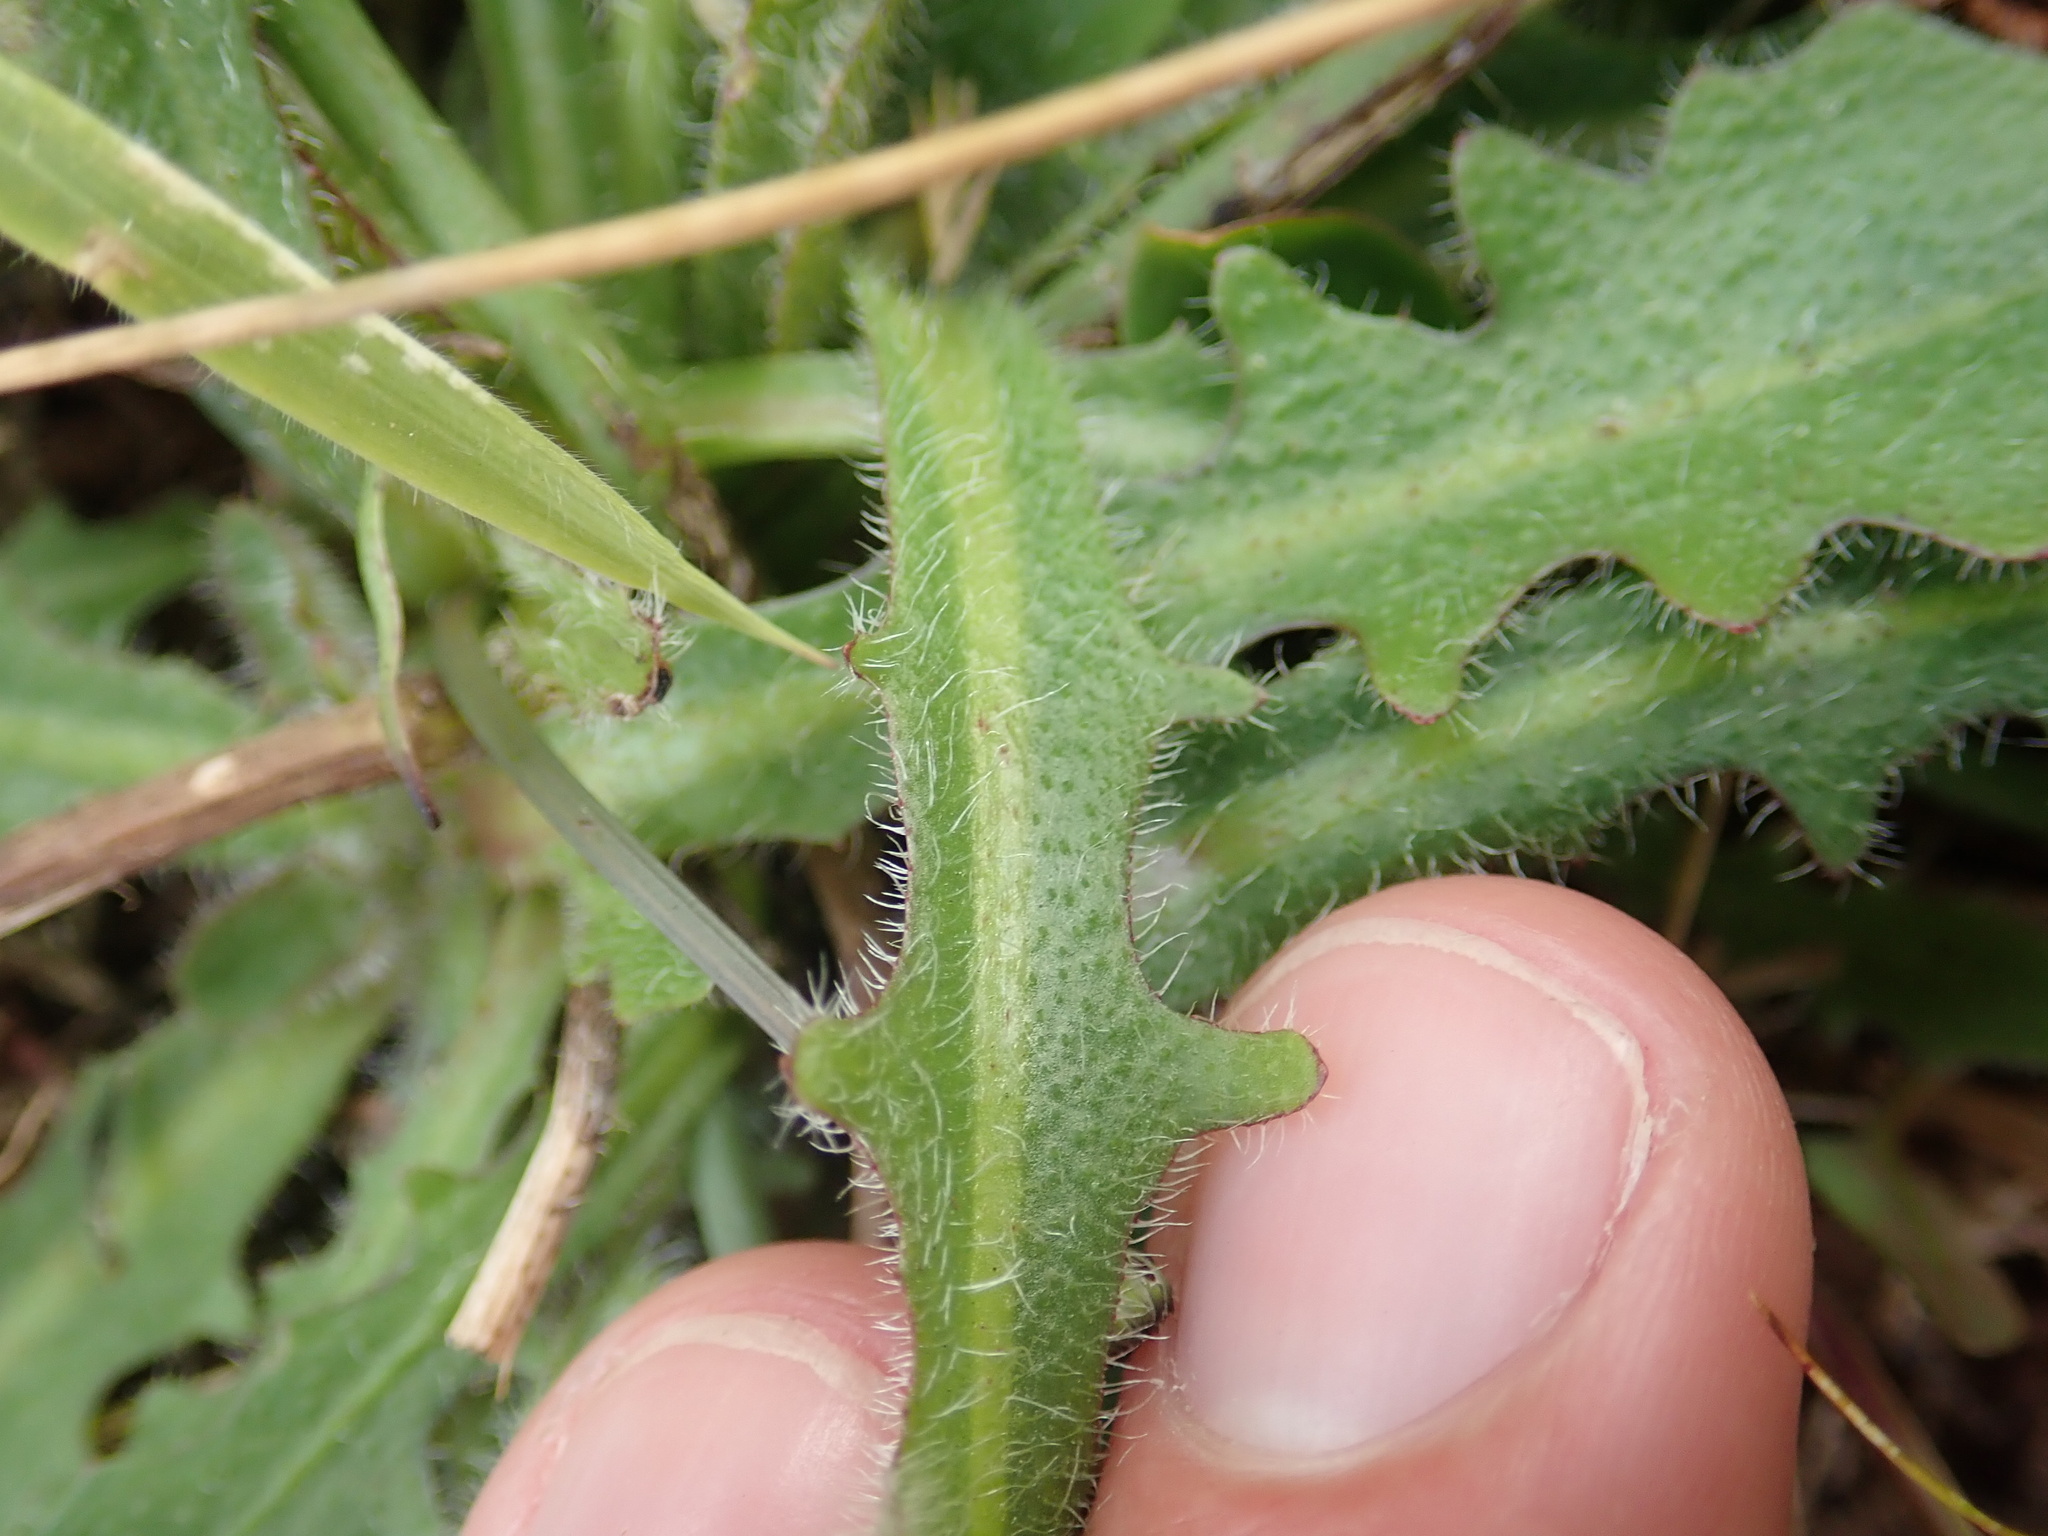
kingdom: Plantae
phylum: Tracheophyta
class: Magnoliopsida
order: Asterales
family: Asteraceae
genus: Hypochaeris
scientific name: Hypochaeris radicata
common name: Flatweed
